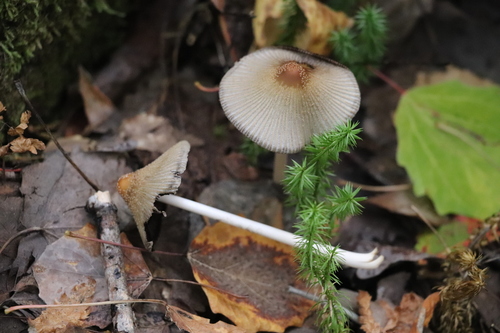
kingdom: Fungi
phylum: Basidiomycota
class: Agaricomycetes
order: Agaricales
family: Psathyrellaceae
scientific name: Psathyrellaceae
